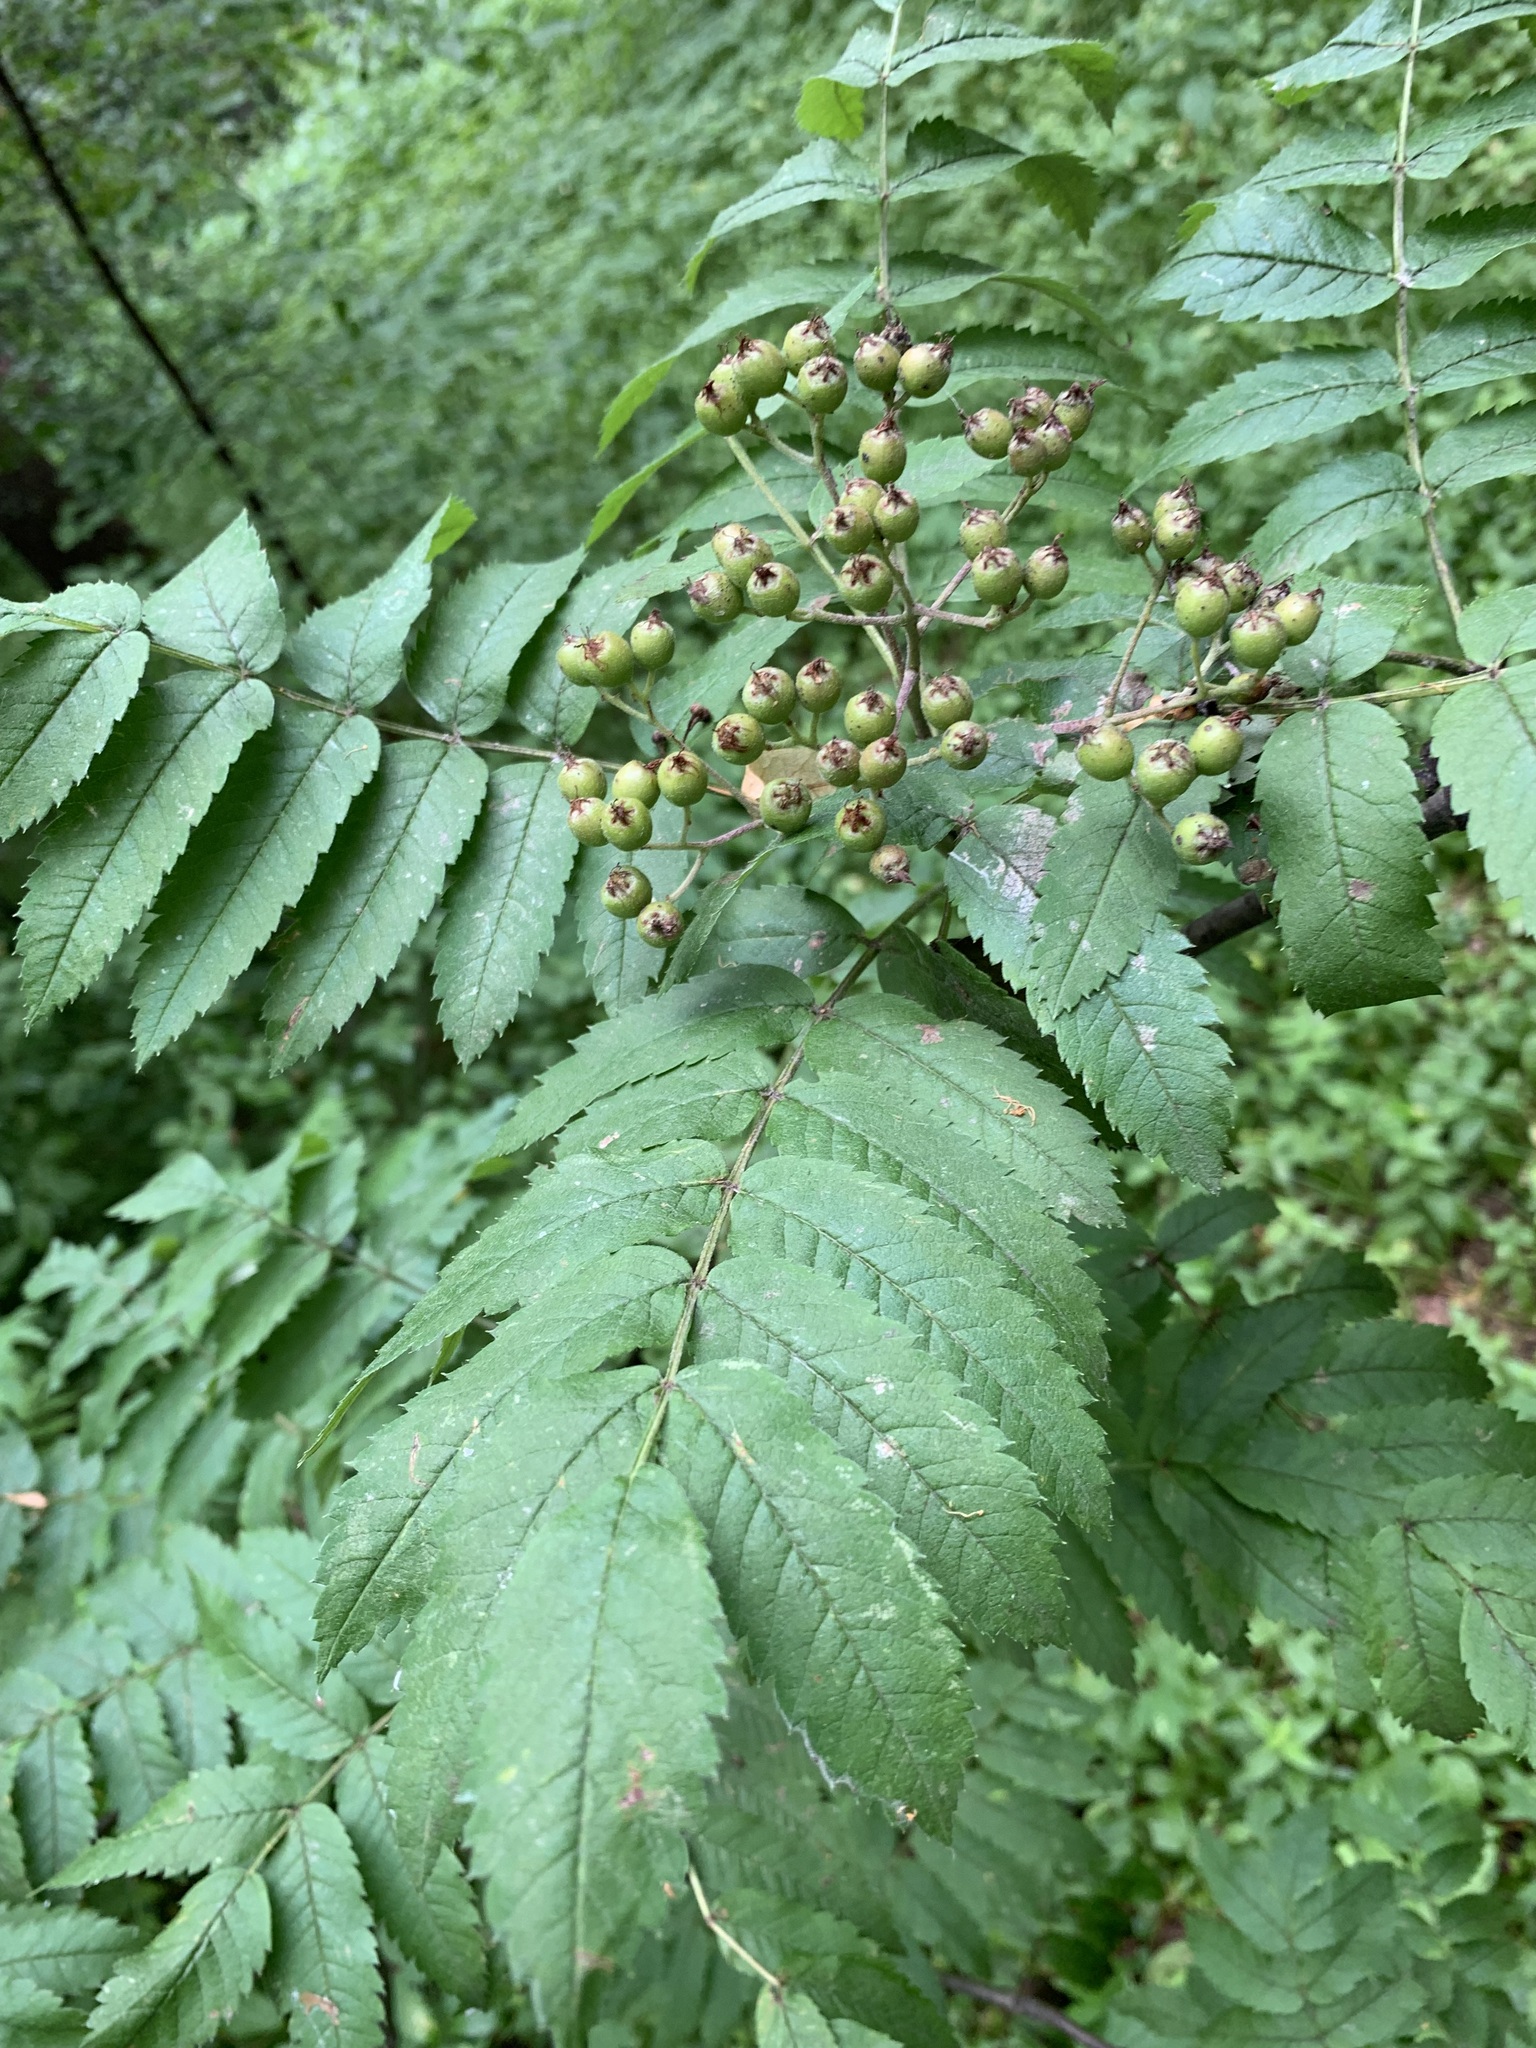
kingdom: Plantae
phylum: Tracheophyta
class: Magnoliopsida
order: Rosales
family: Rosaceae
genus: Sorbus
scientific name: Sorbus aucuparia
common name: Rowan
